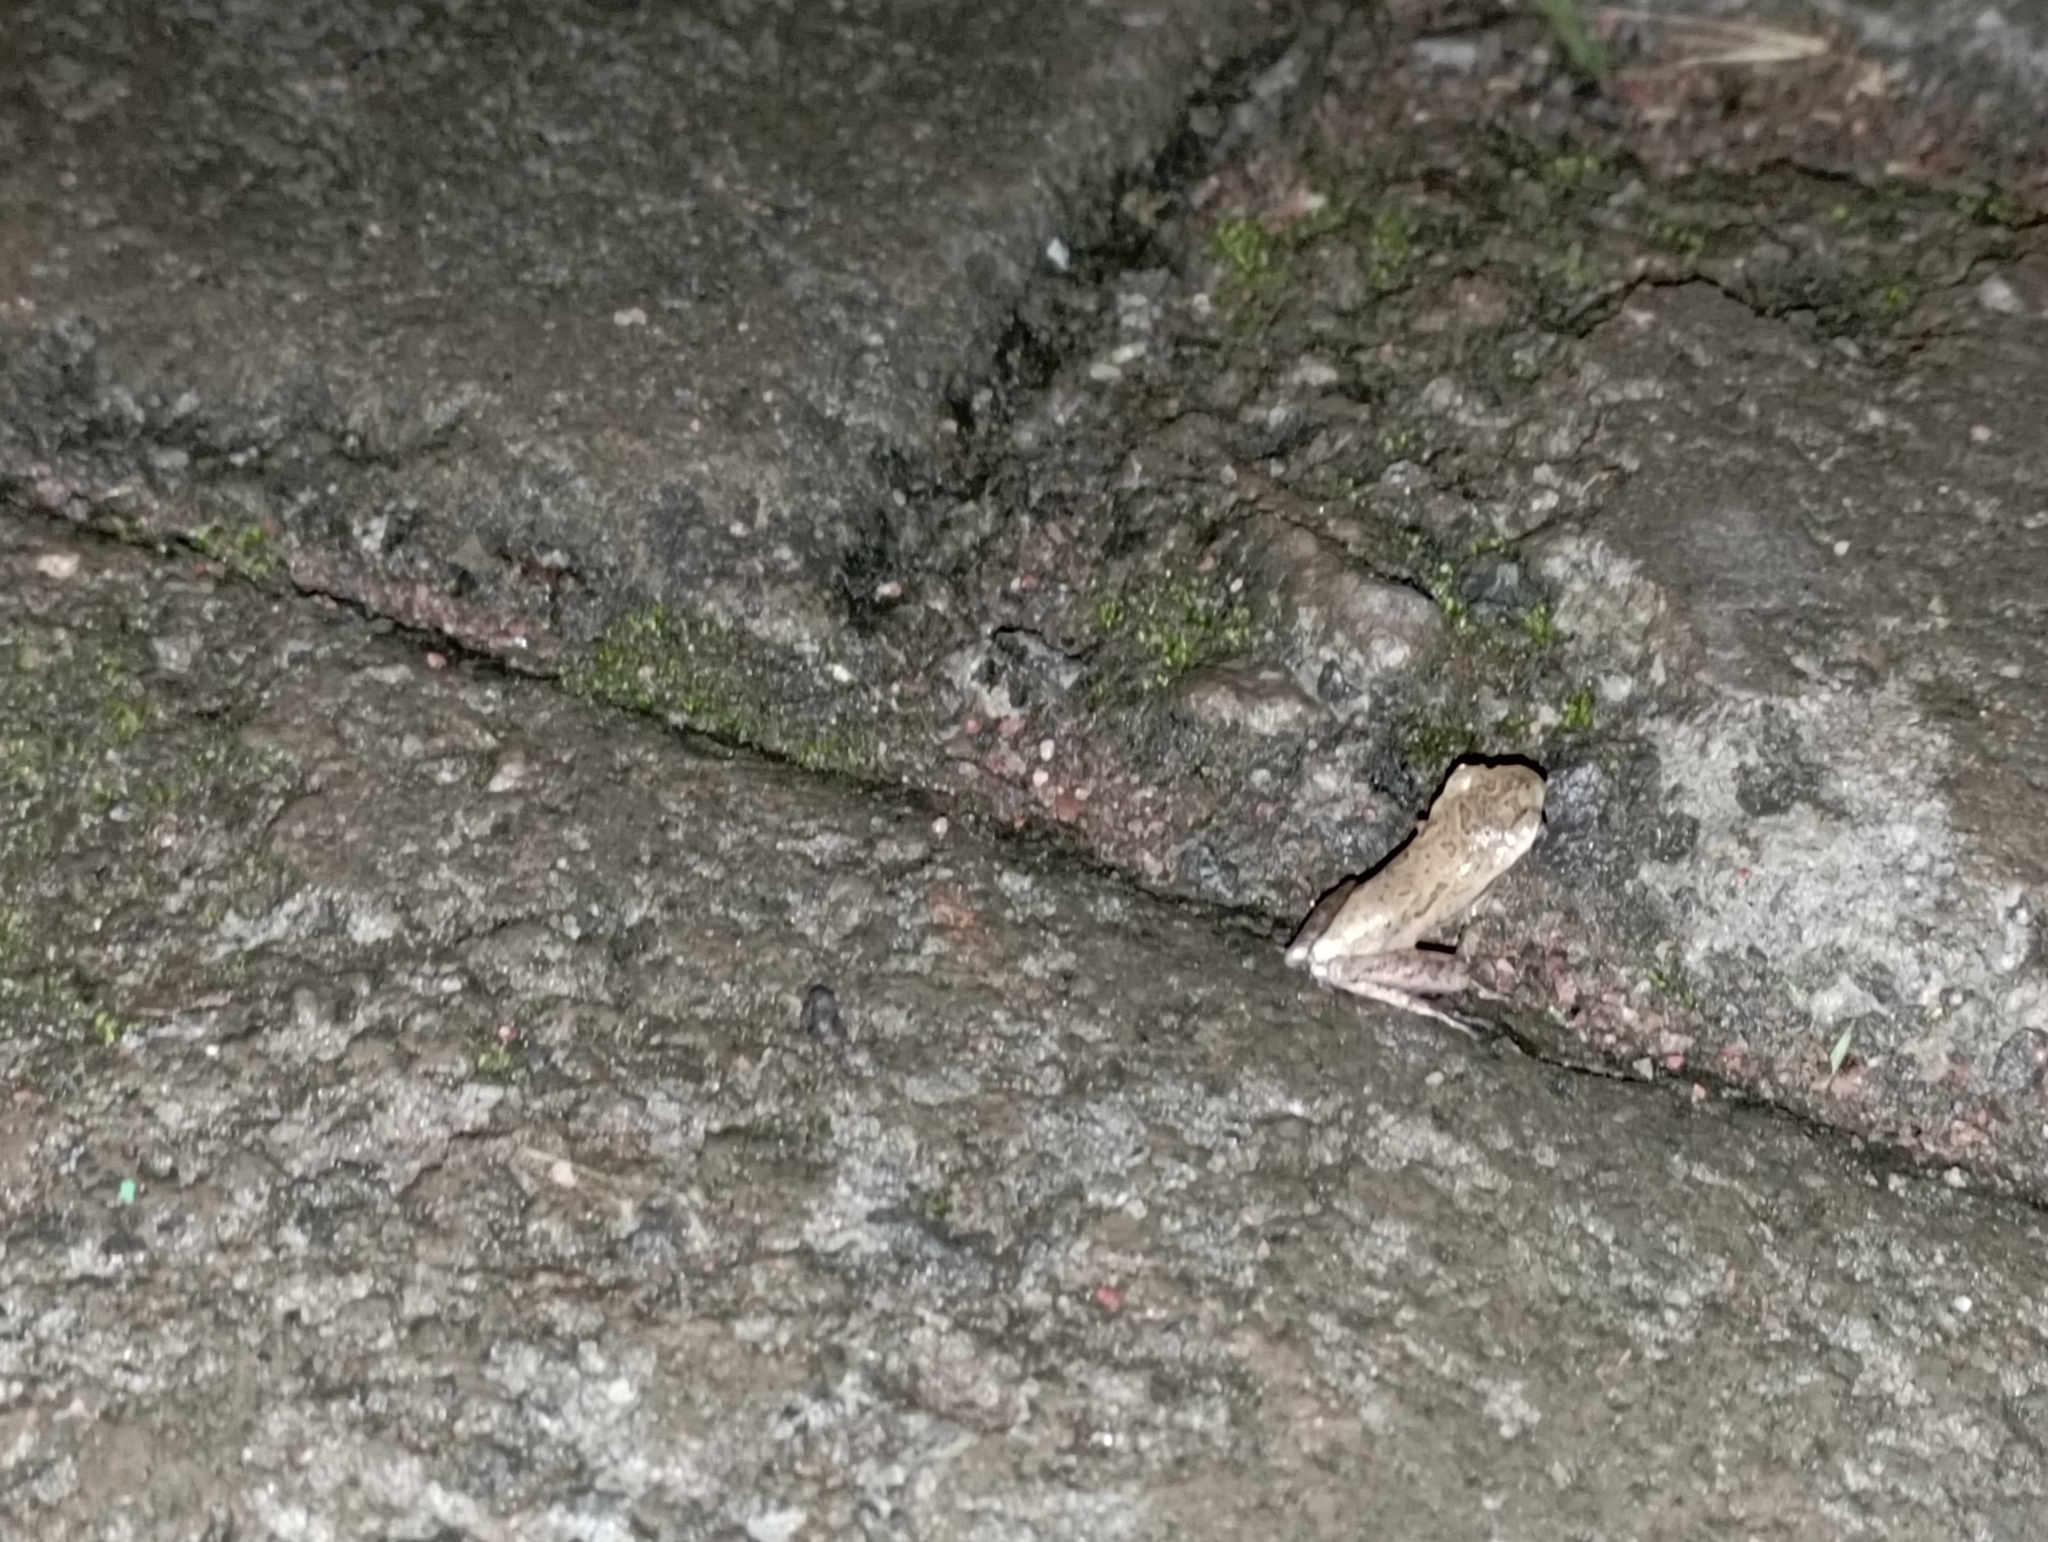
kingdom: Animalia
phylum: Chordata
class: Amphibia
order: Anura
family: Rhacophoridae
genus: Polypedates
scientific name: Polypedates leucomystax
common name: Common tree frog/four-lined tree frog
